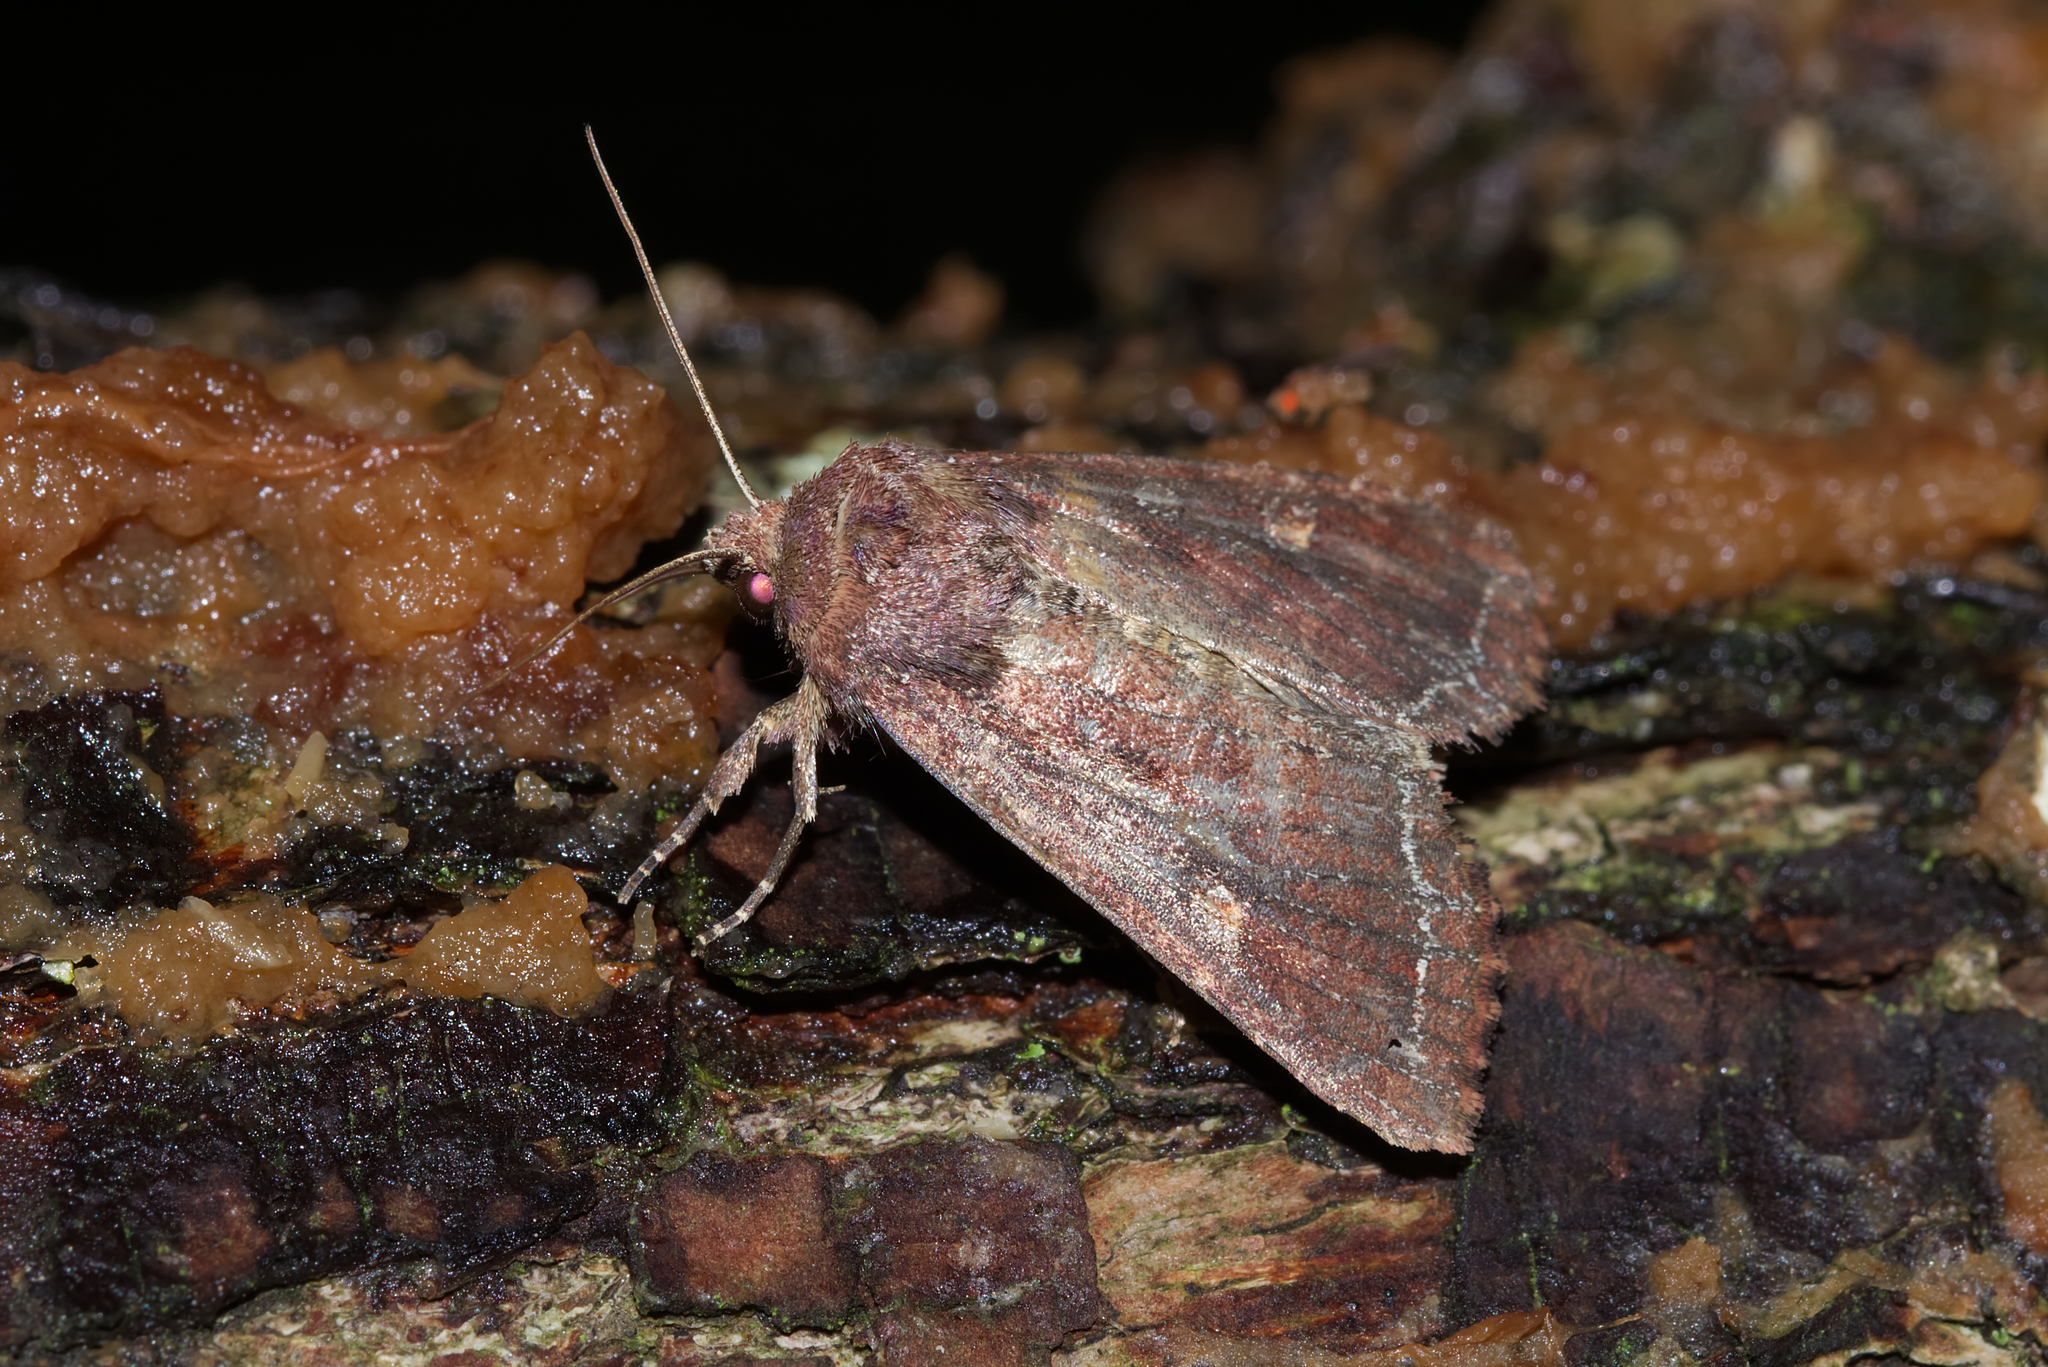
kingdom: Animalia
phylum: Arthropoda
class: Insecta
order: Lepidoptera
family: Noctuidae
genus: Lacanobia
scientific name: Lacanobia oleracea
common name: Bright-line brown-eye
